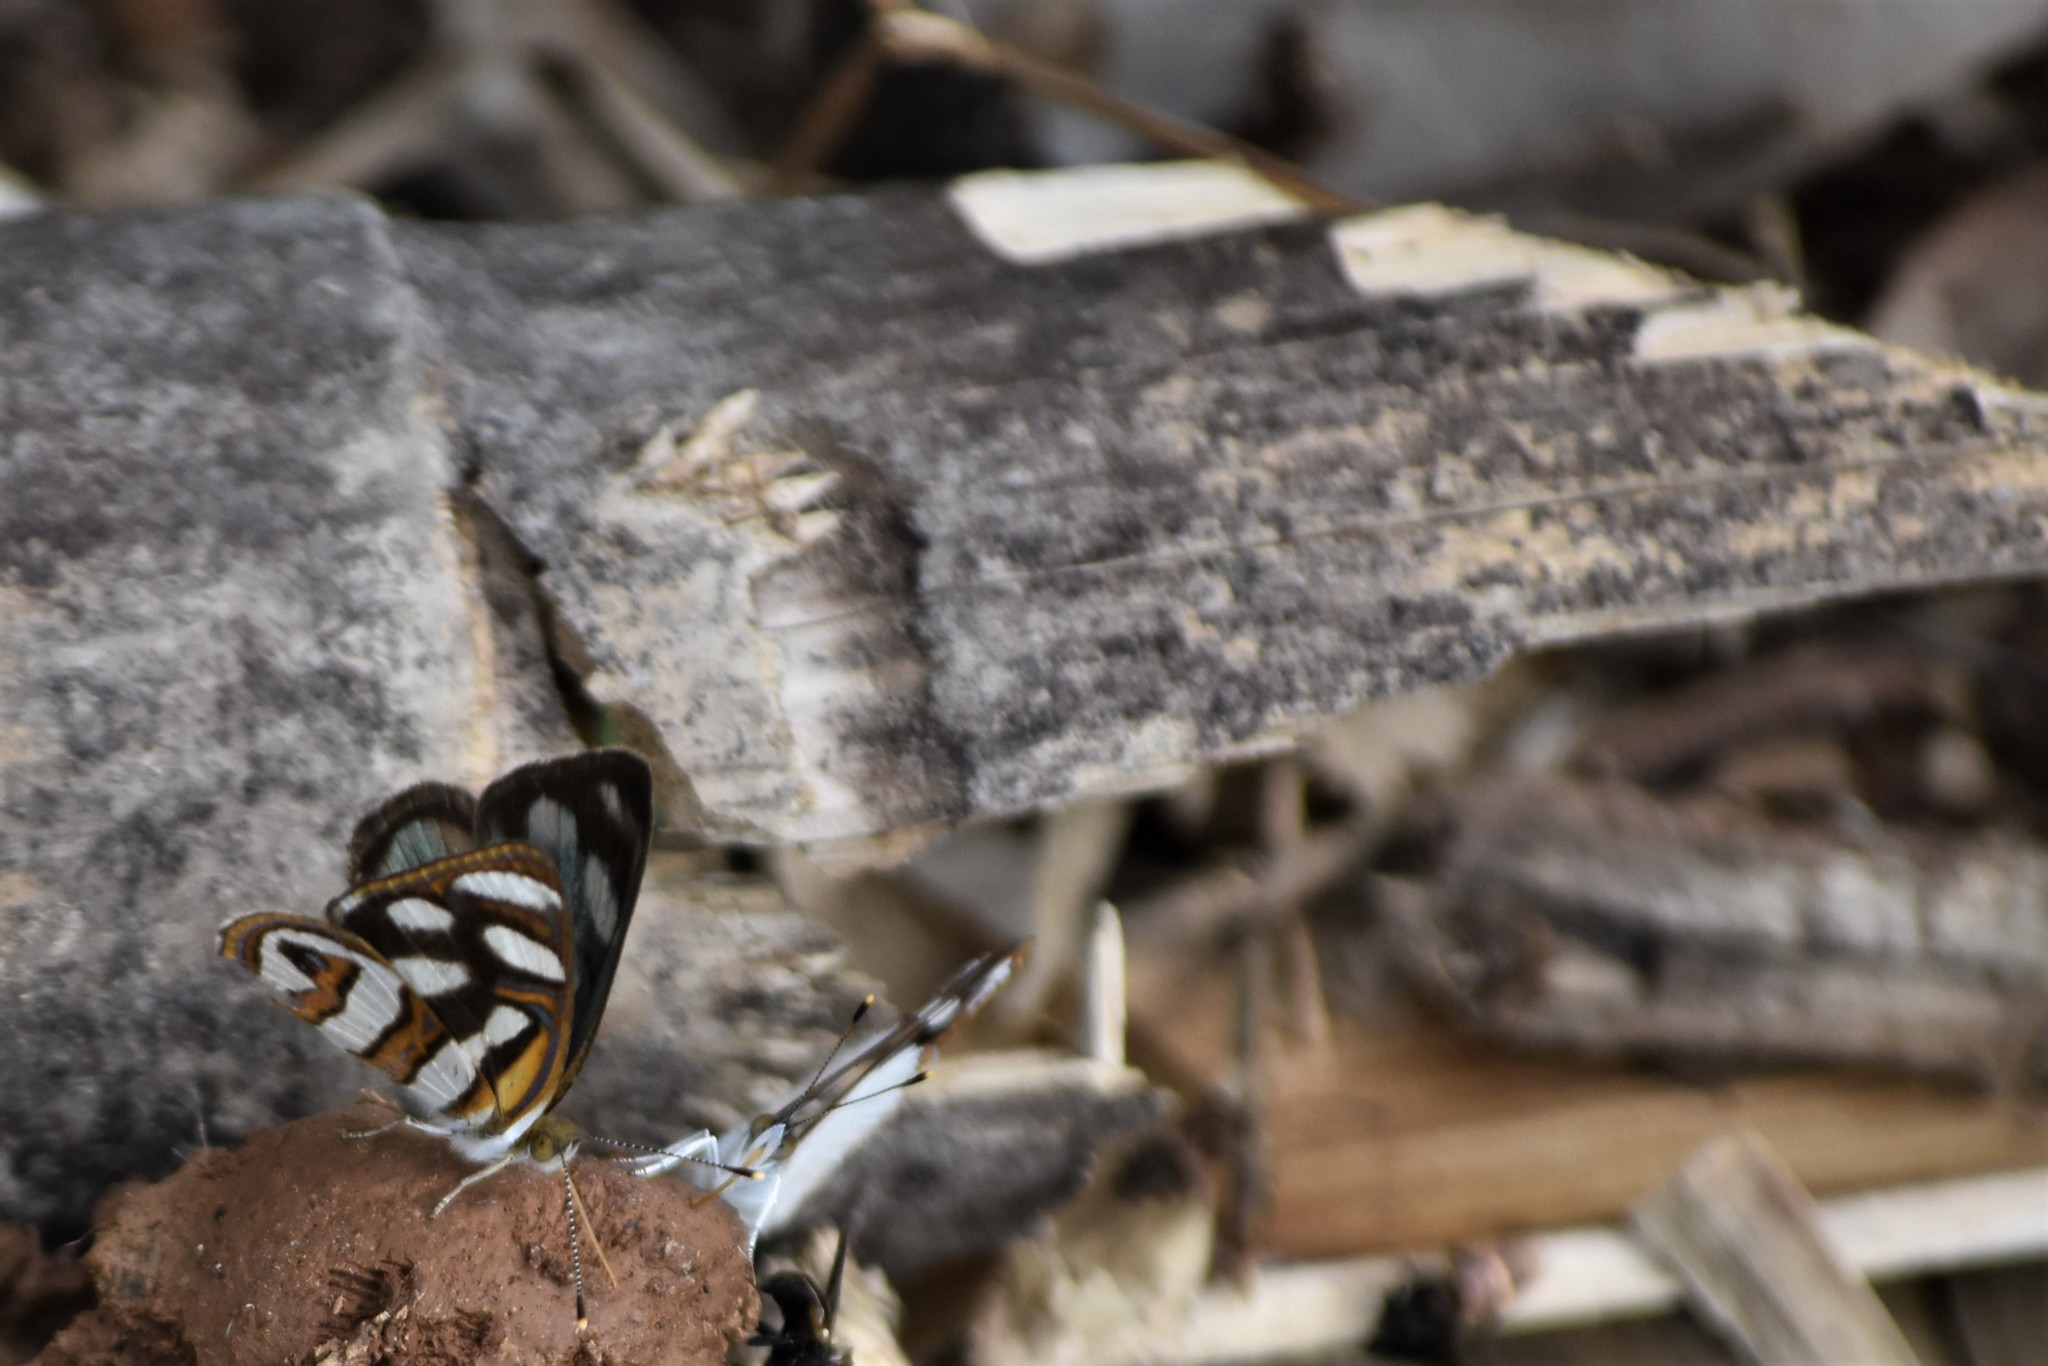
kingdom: Animalia
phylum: Arthropoda
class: Insecta
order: Lepidoptera
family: Nymphalidae
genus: Dynamine
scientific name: Dynamine artemisia
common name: Small-eyed sailor
